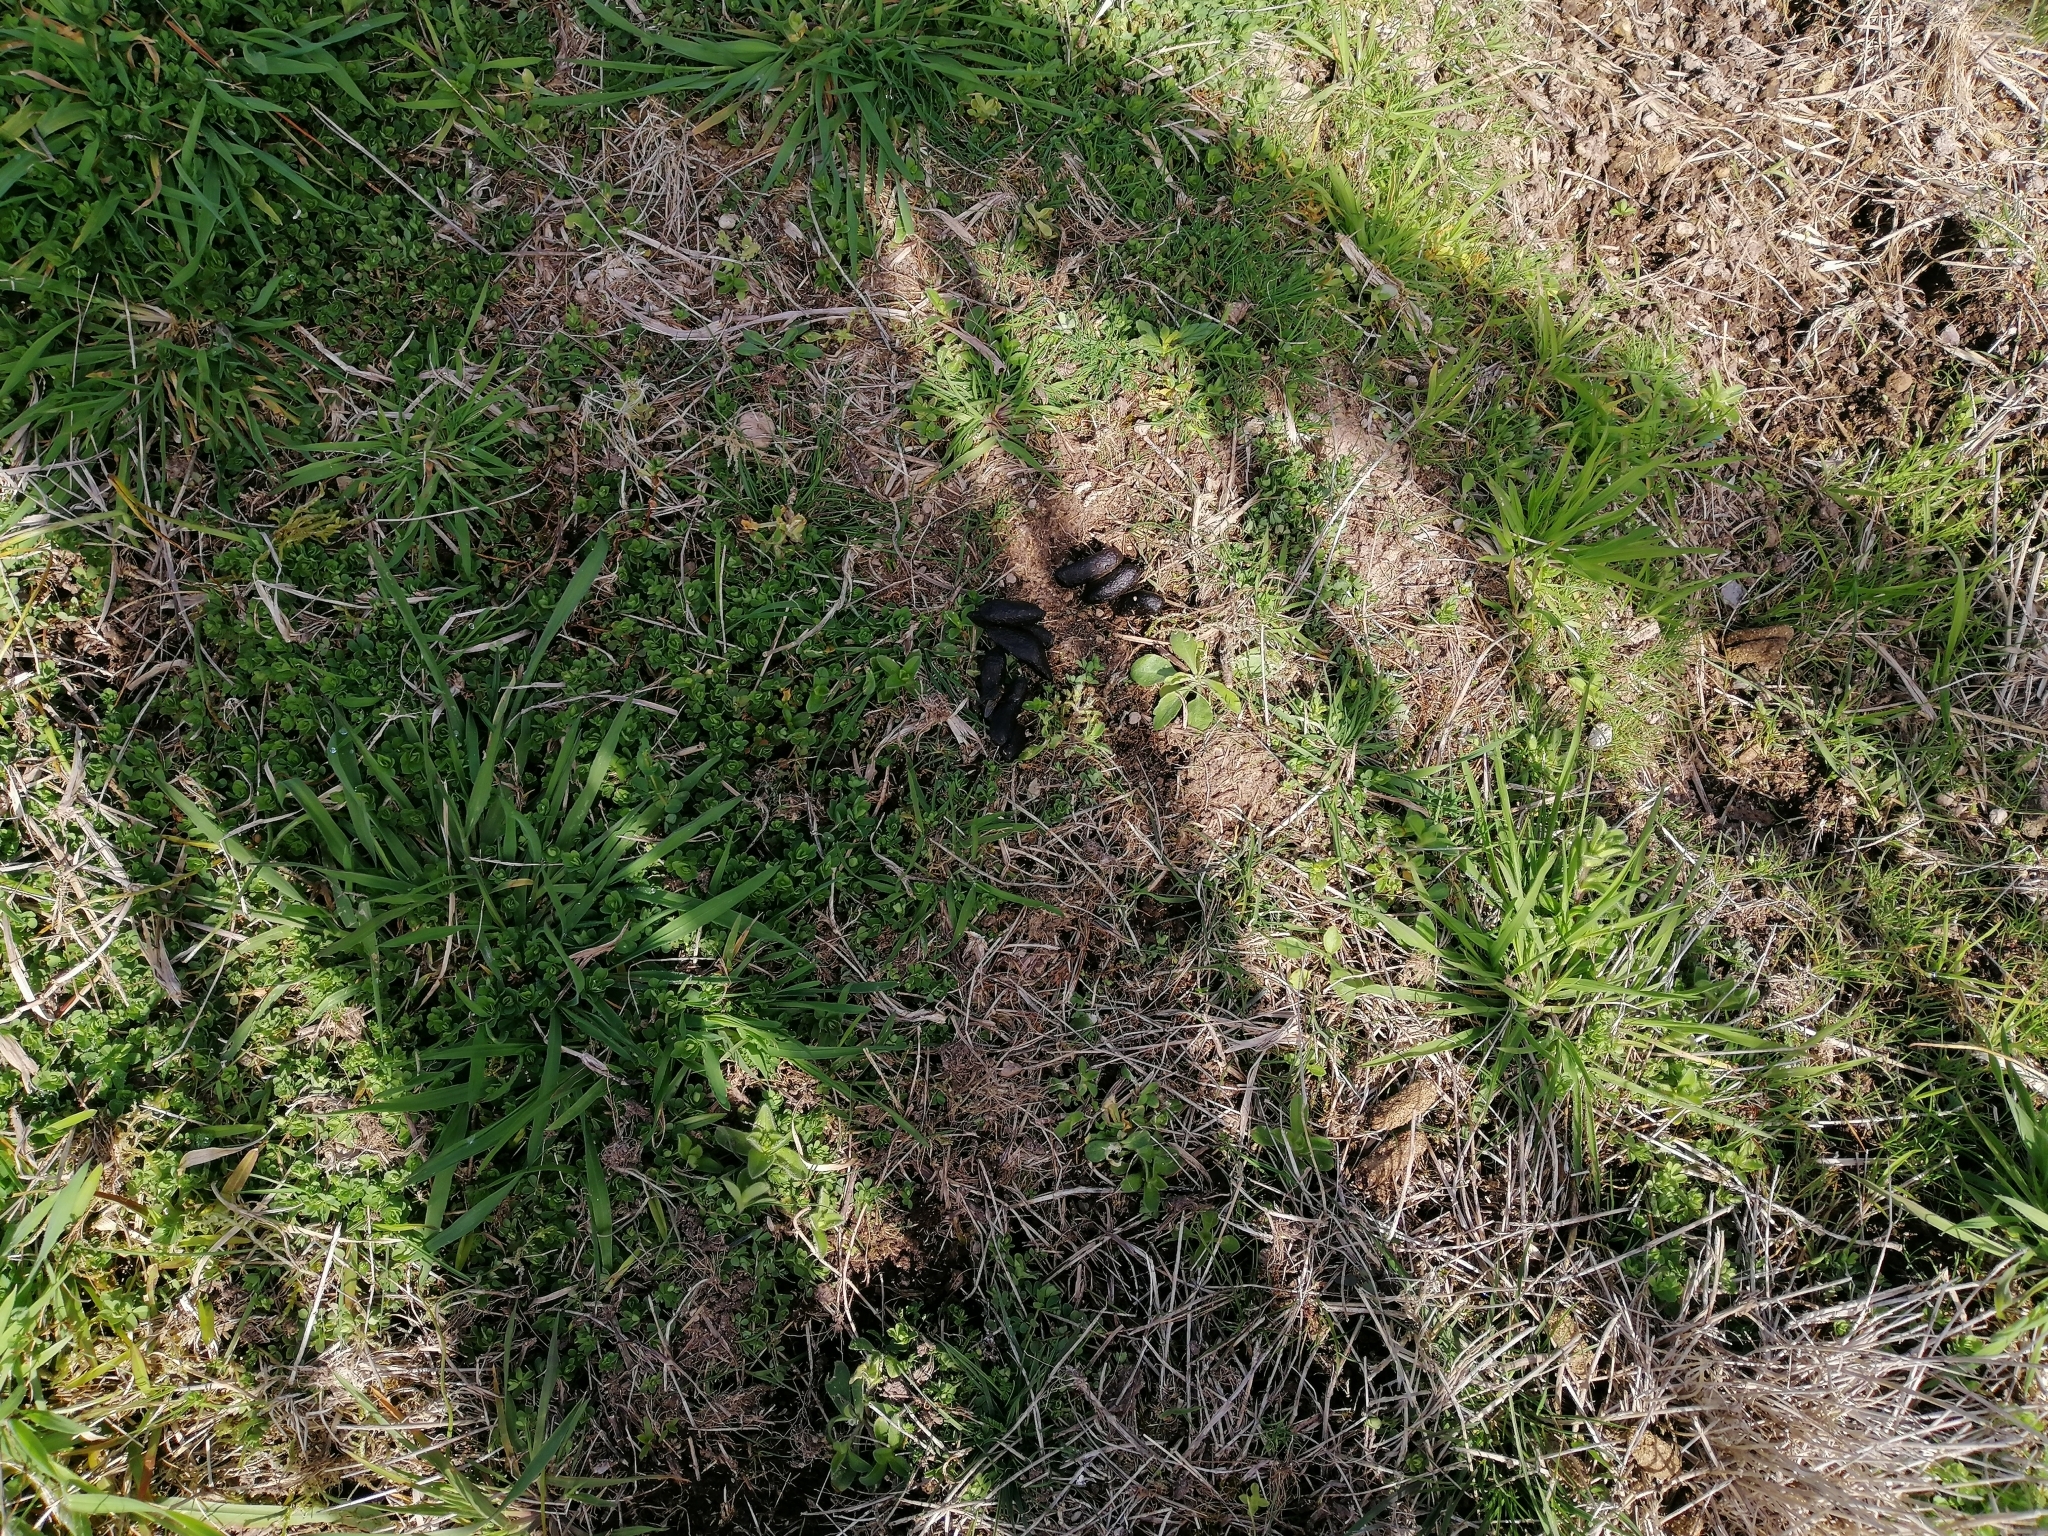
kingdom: Animalia
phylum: Chordata
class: Mammalia
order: Artiodactyla
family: Suidae
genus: Sus
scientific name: Sus scrofa
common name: Wild boar
